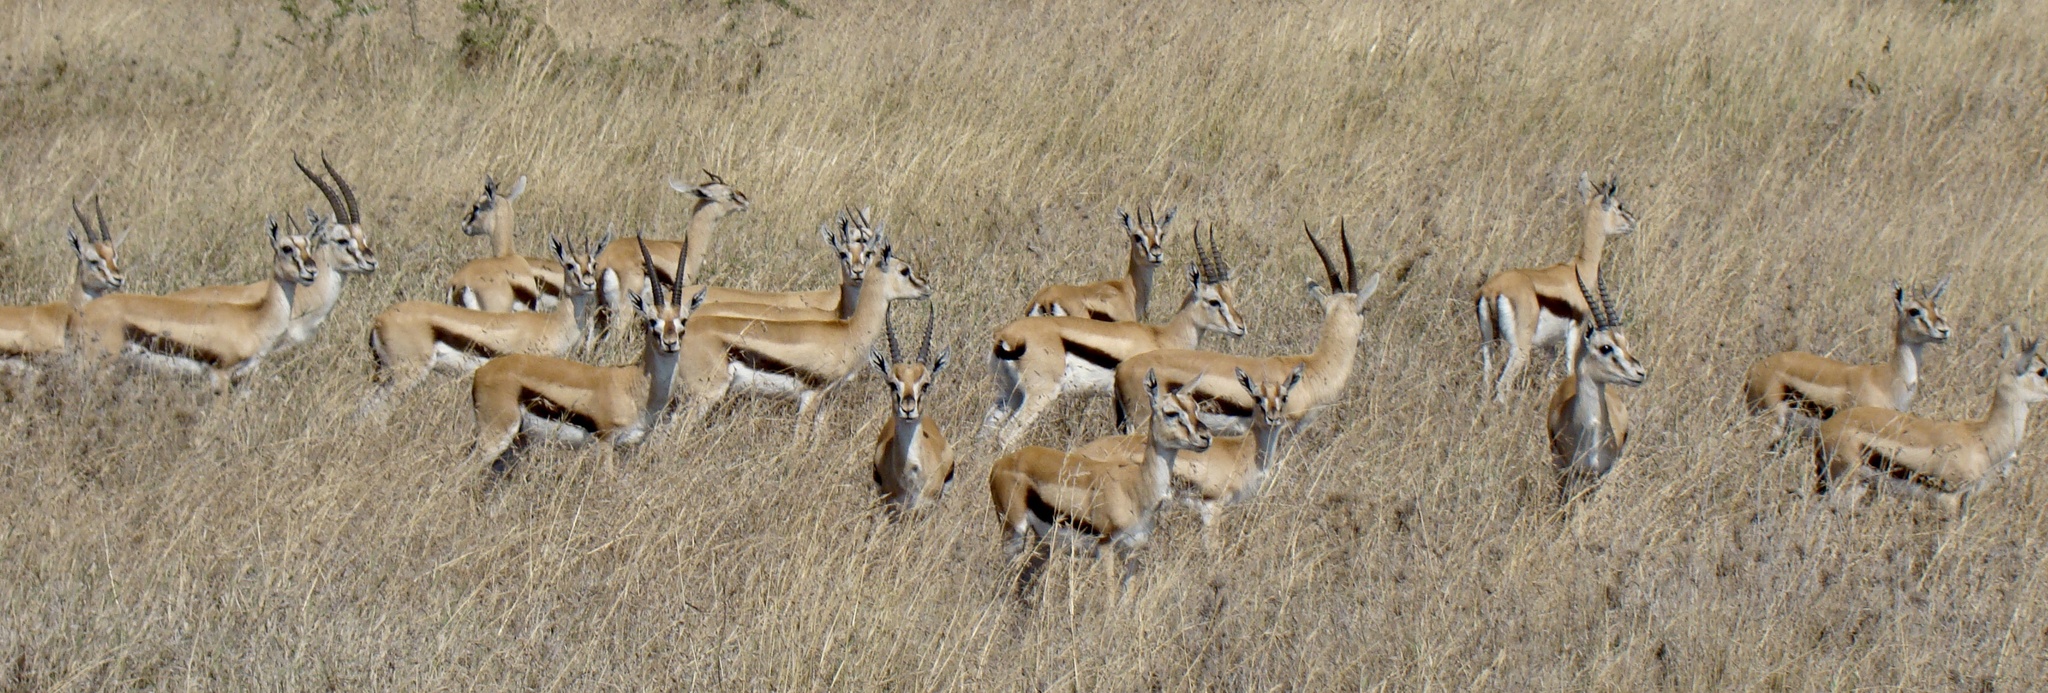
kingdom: Animalia
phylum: Chordata
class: Mammalia
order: Artiodactyla
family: Bovidae
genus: Eudorcas
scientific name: Eudorcas thomsonii
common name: Thomson's gazelle
